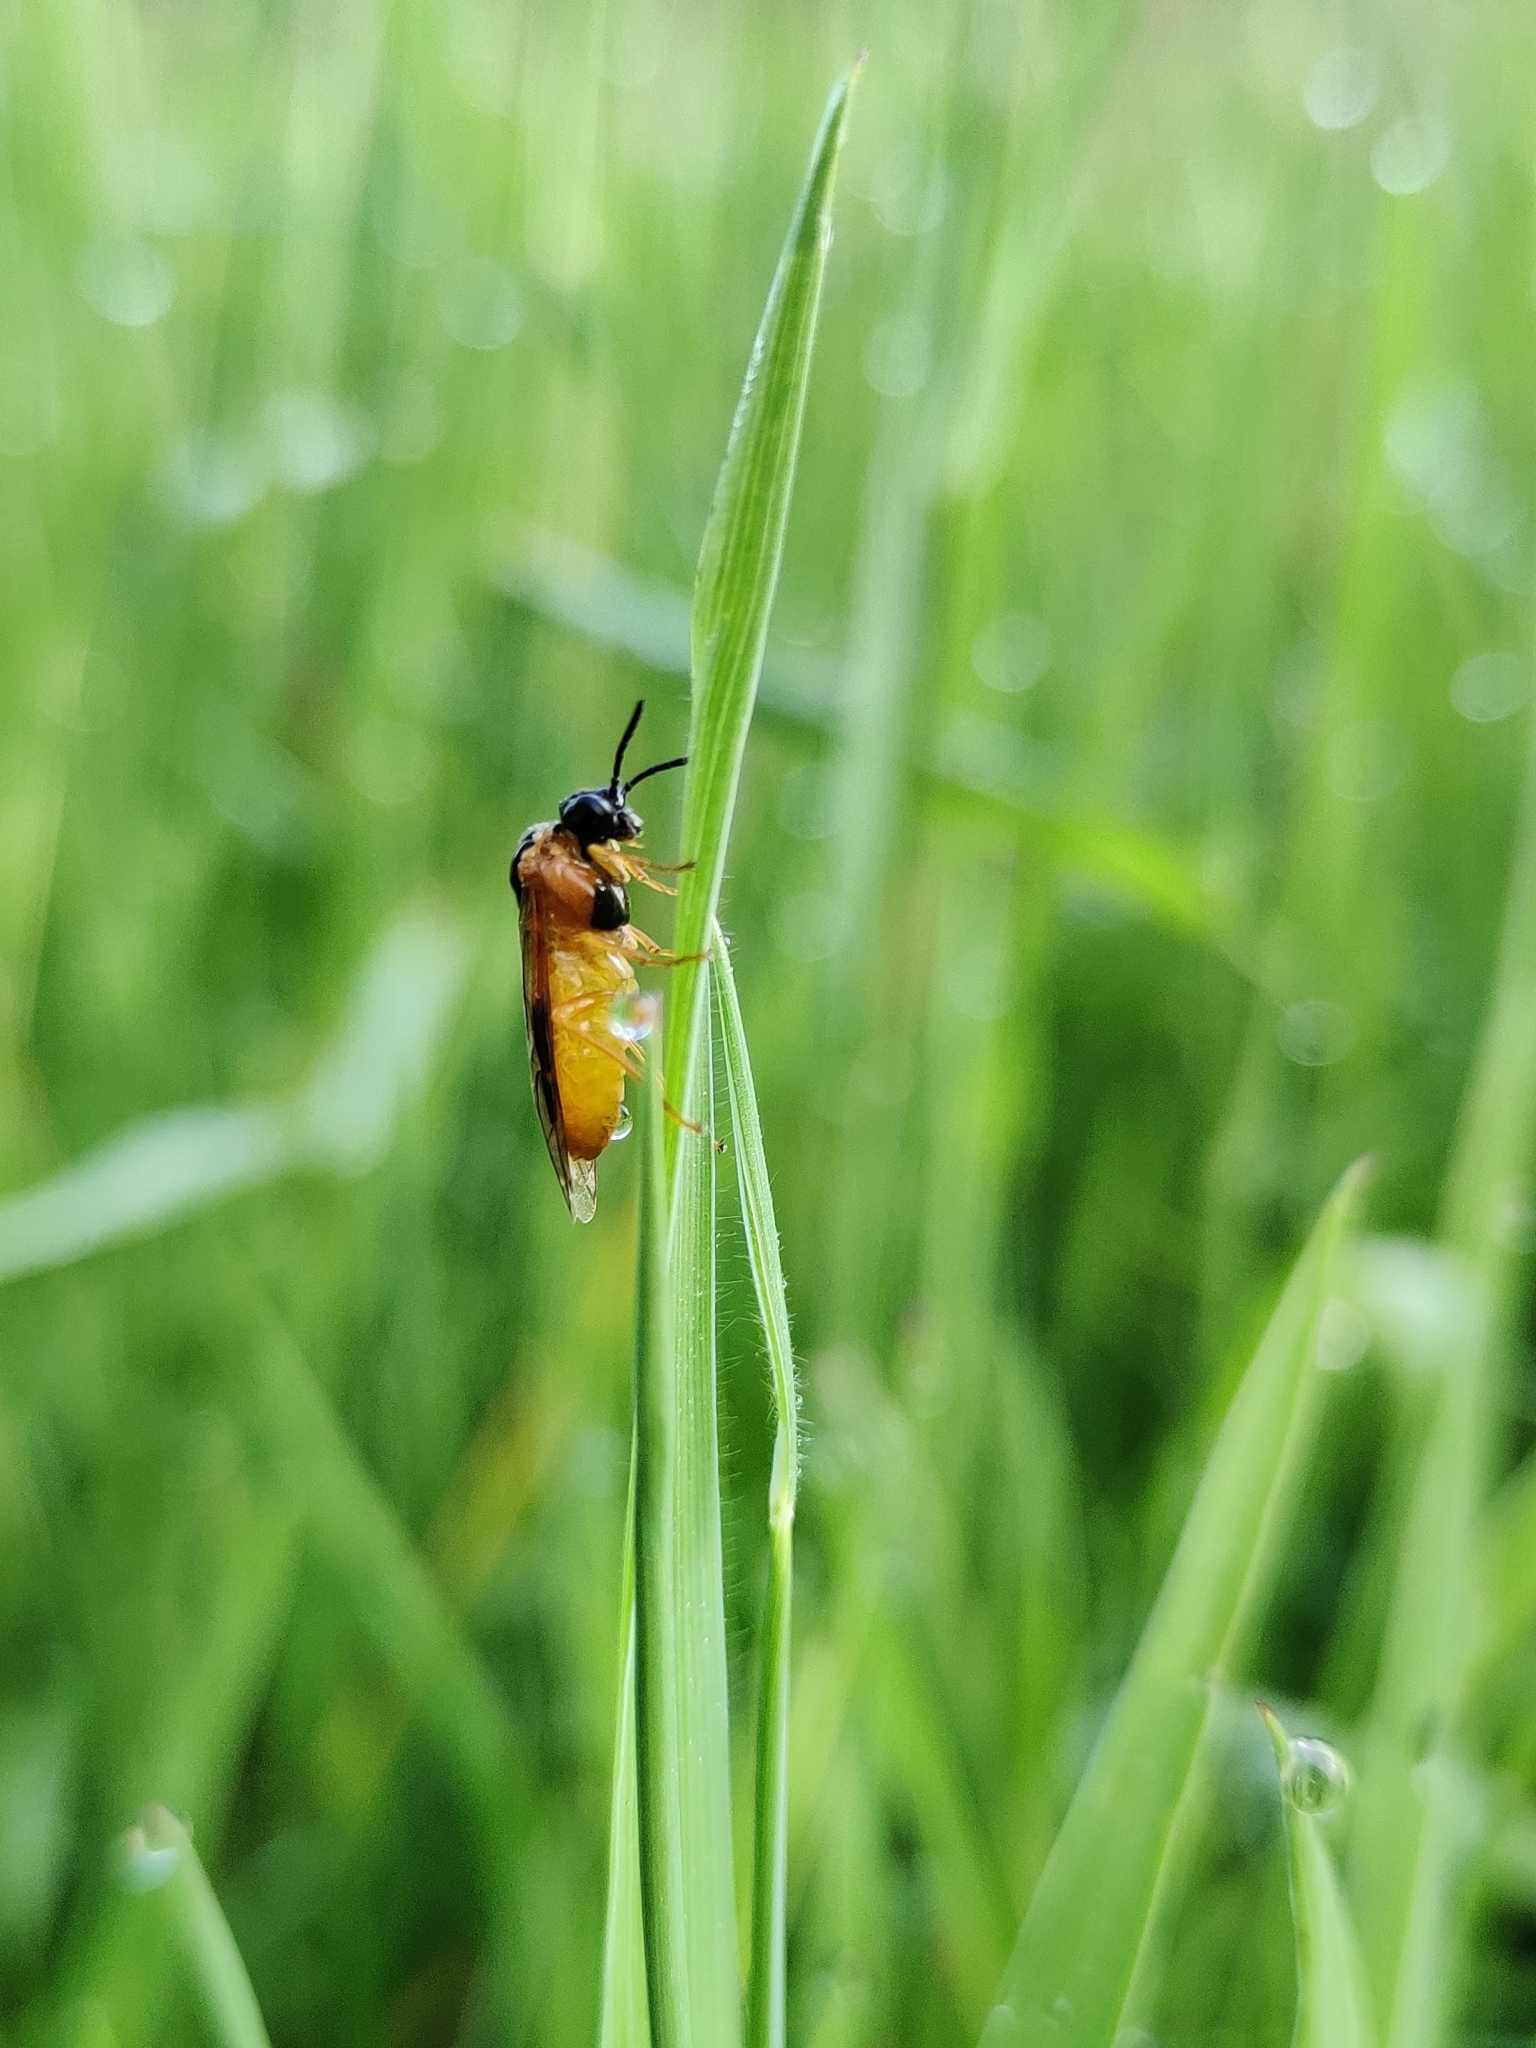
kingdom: Animalia
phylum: Arthropoda
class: Insecta
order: Hymenoptera
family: Tenthredinidae
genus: Selandria
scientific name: Selandria serva
